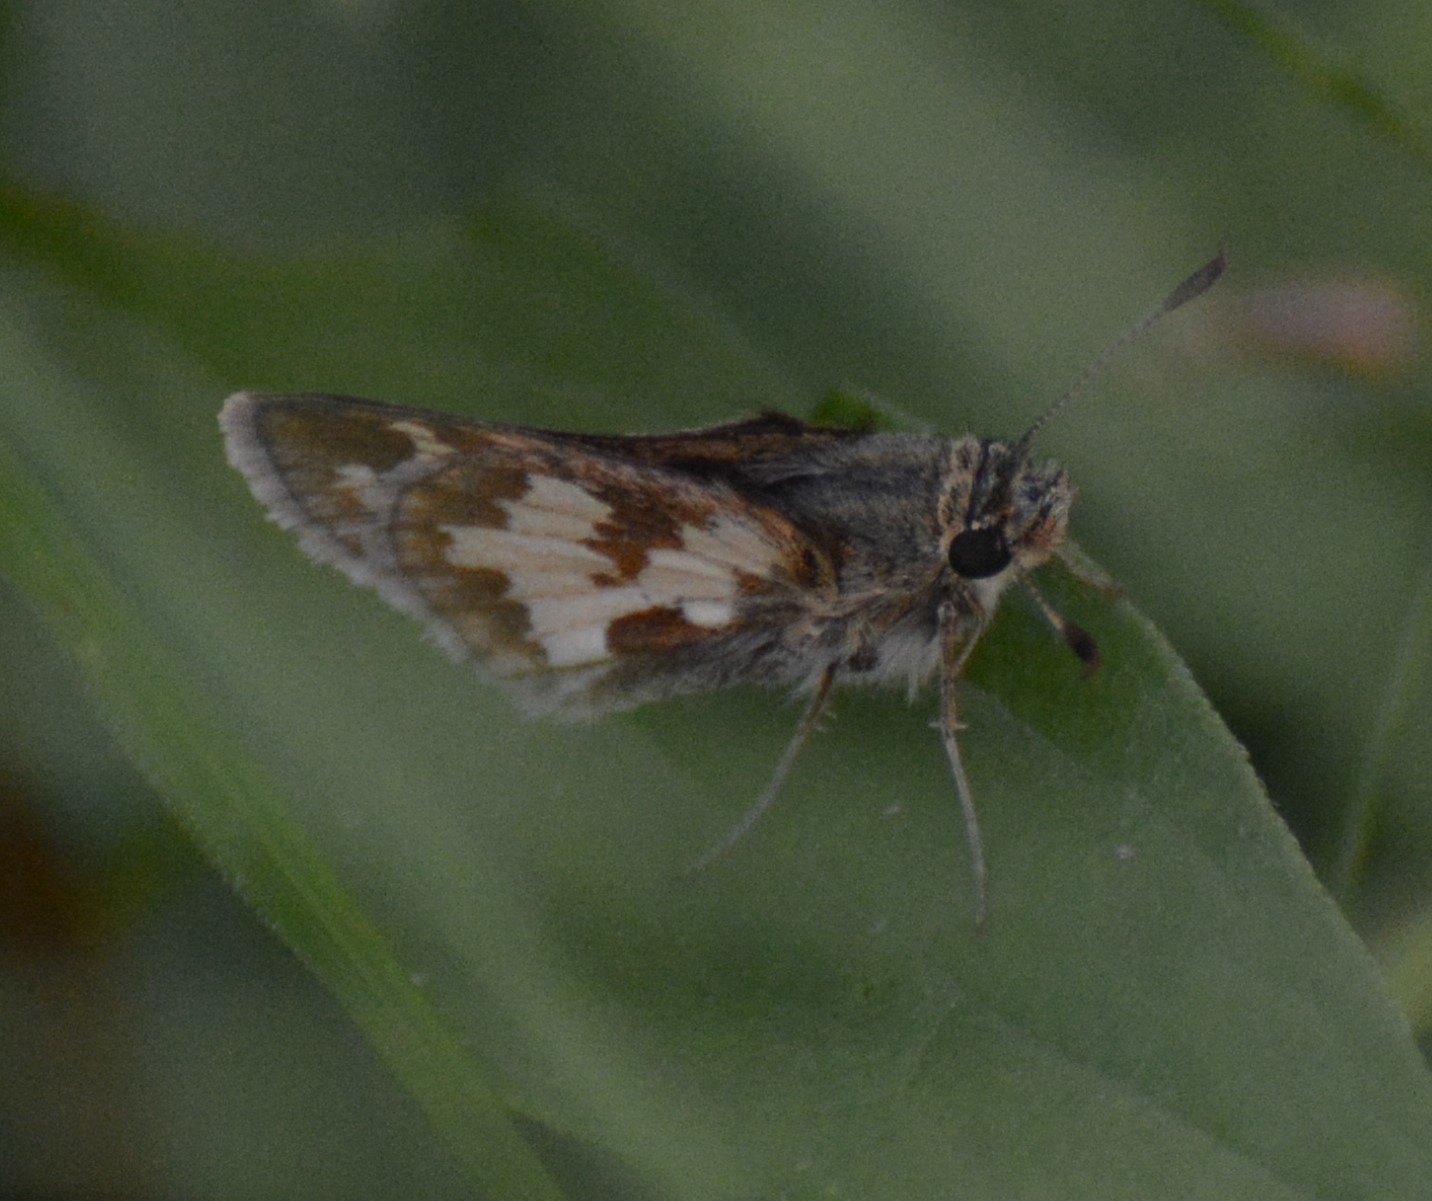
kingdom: Animalia
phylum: Arthropoda
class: Insecta
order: Lepidoptera
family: Hesperiidae
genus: Polites
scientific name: Polites coras
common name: Peck's skipper
